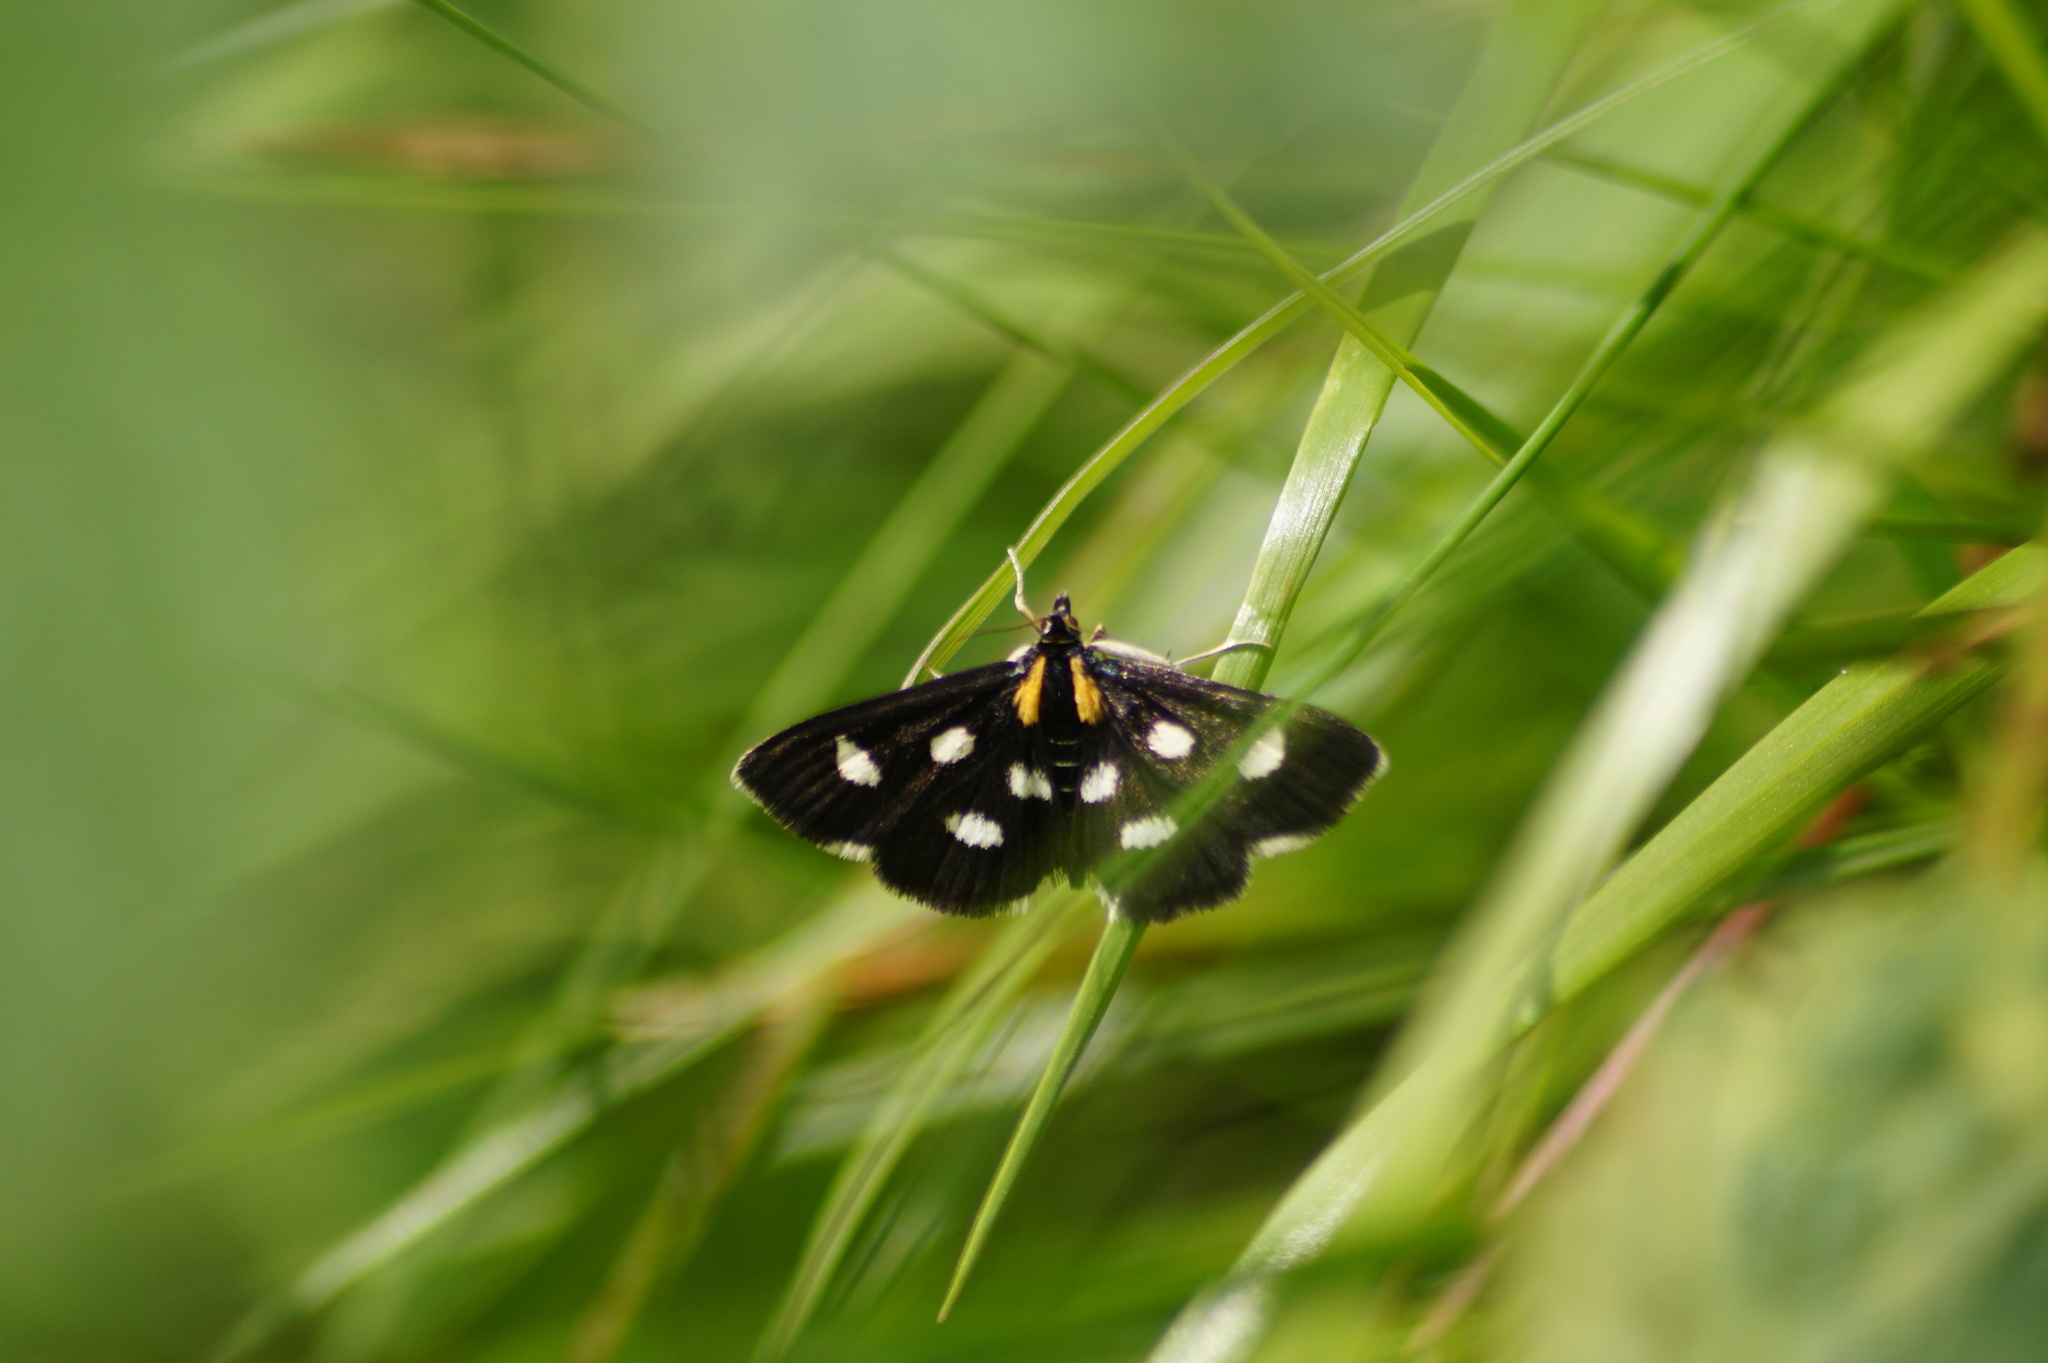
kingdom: Animalia
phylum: Arthropoda
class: Insecta
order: Lepidoptera
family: Crambidae
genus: Anania
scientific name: Anania funebris
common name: White-spotted sable moth
